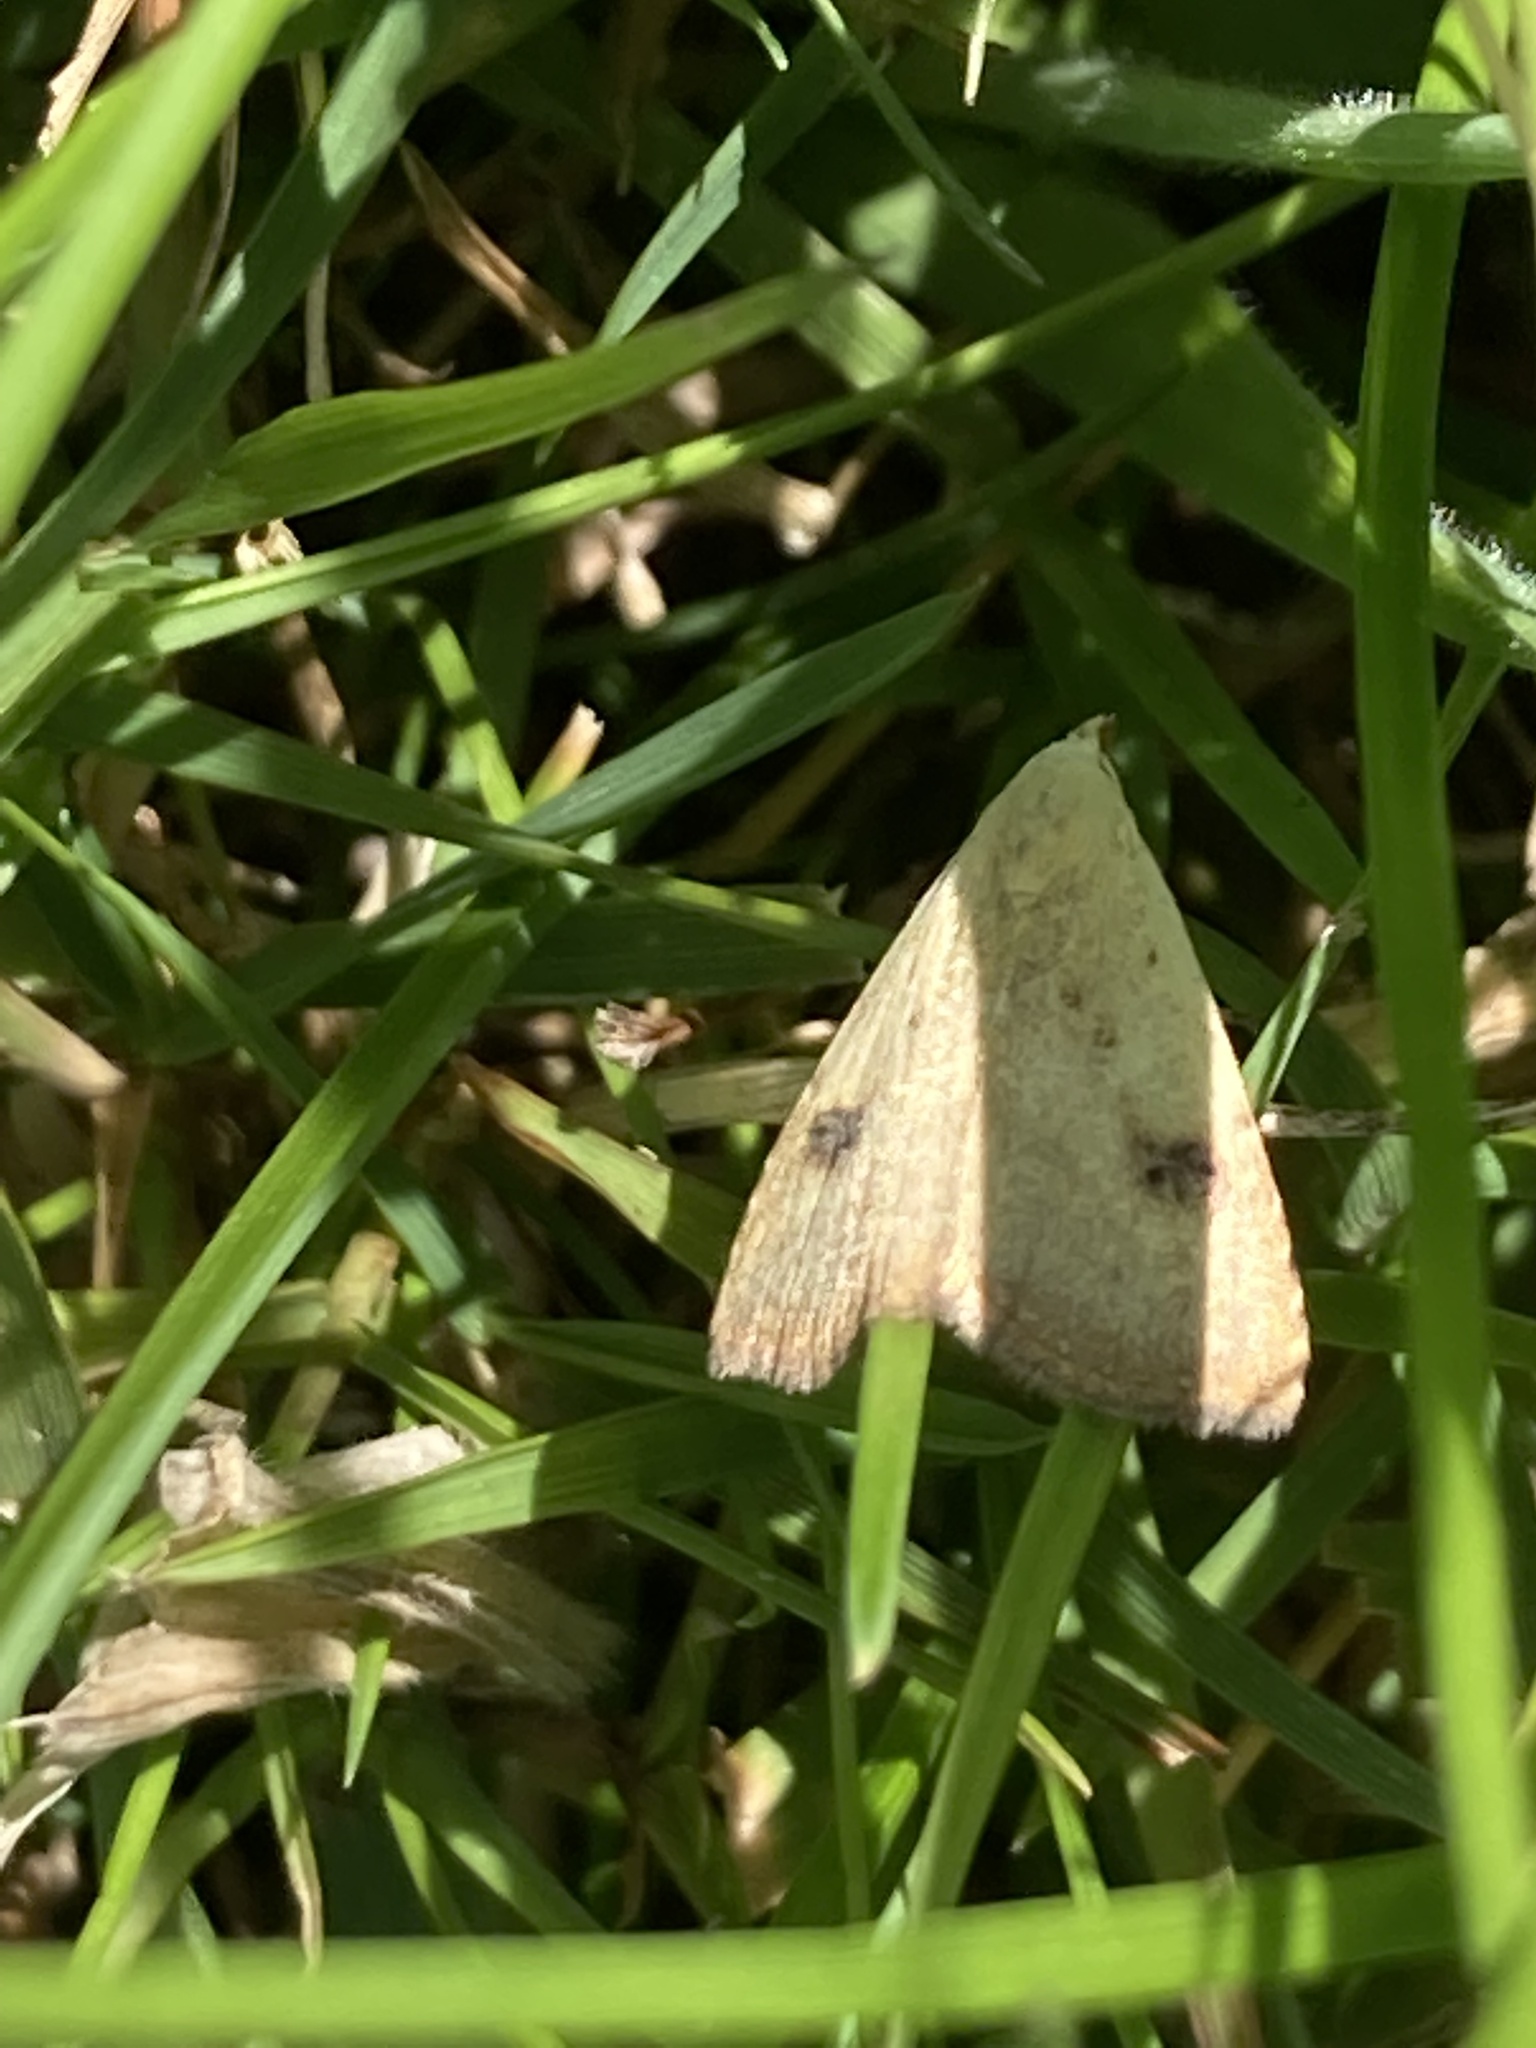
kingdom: Animalia
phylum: Arthropoda
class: Insecta
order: Lepidoptera
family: Erebidae
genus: Rivula
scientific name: Rivula sericealis
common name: Straw dot
